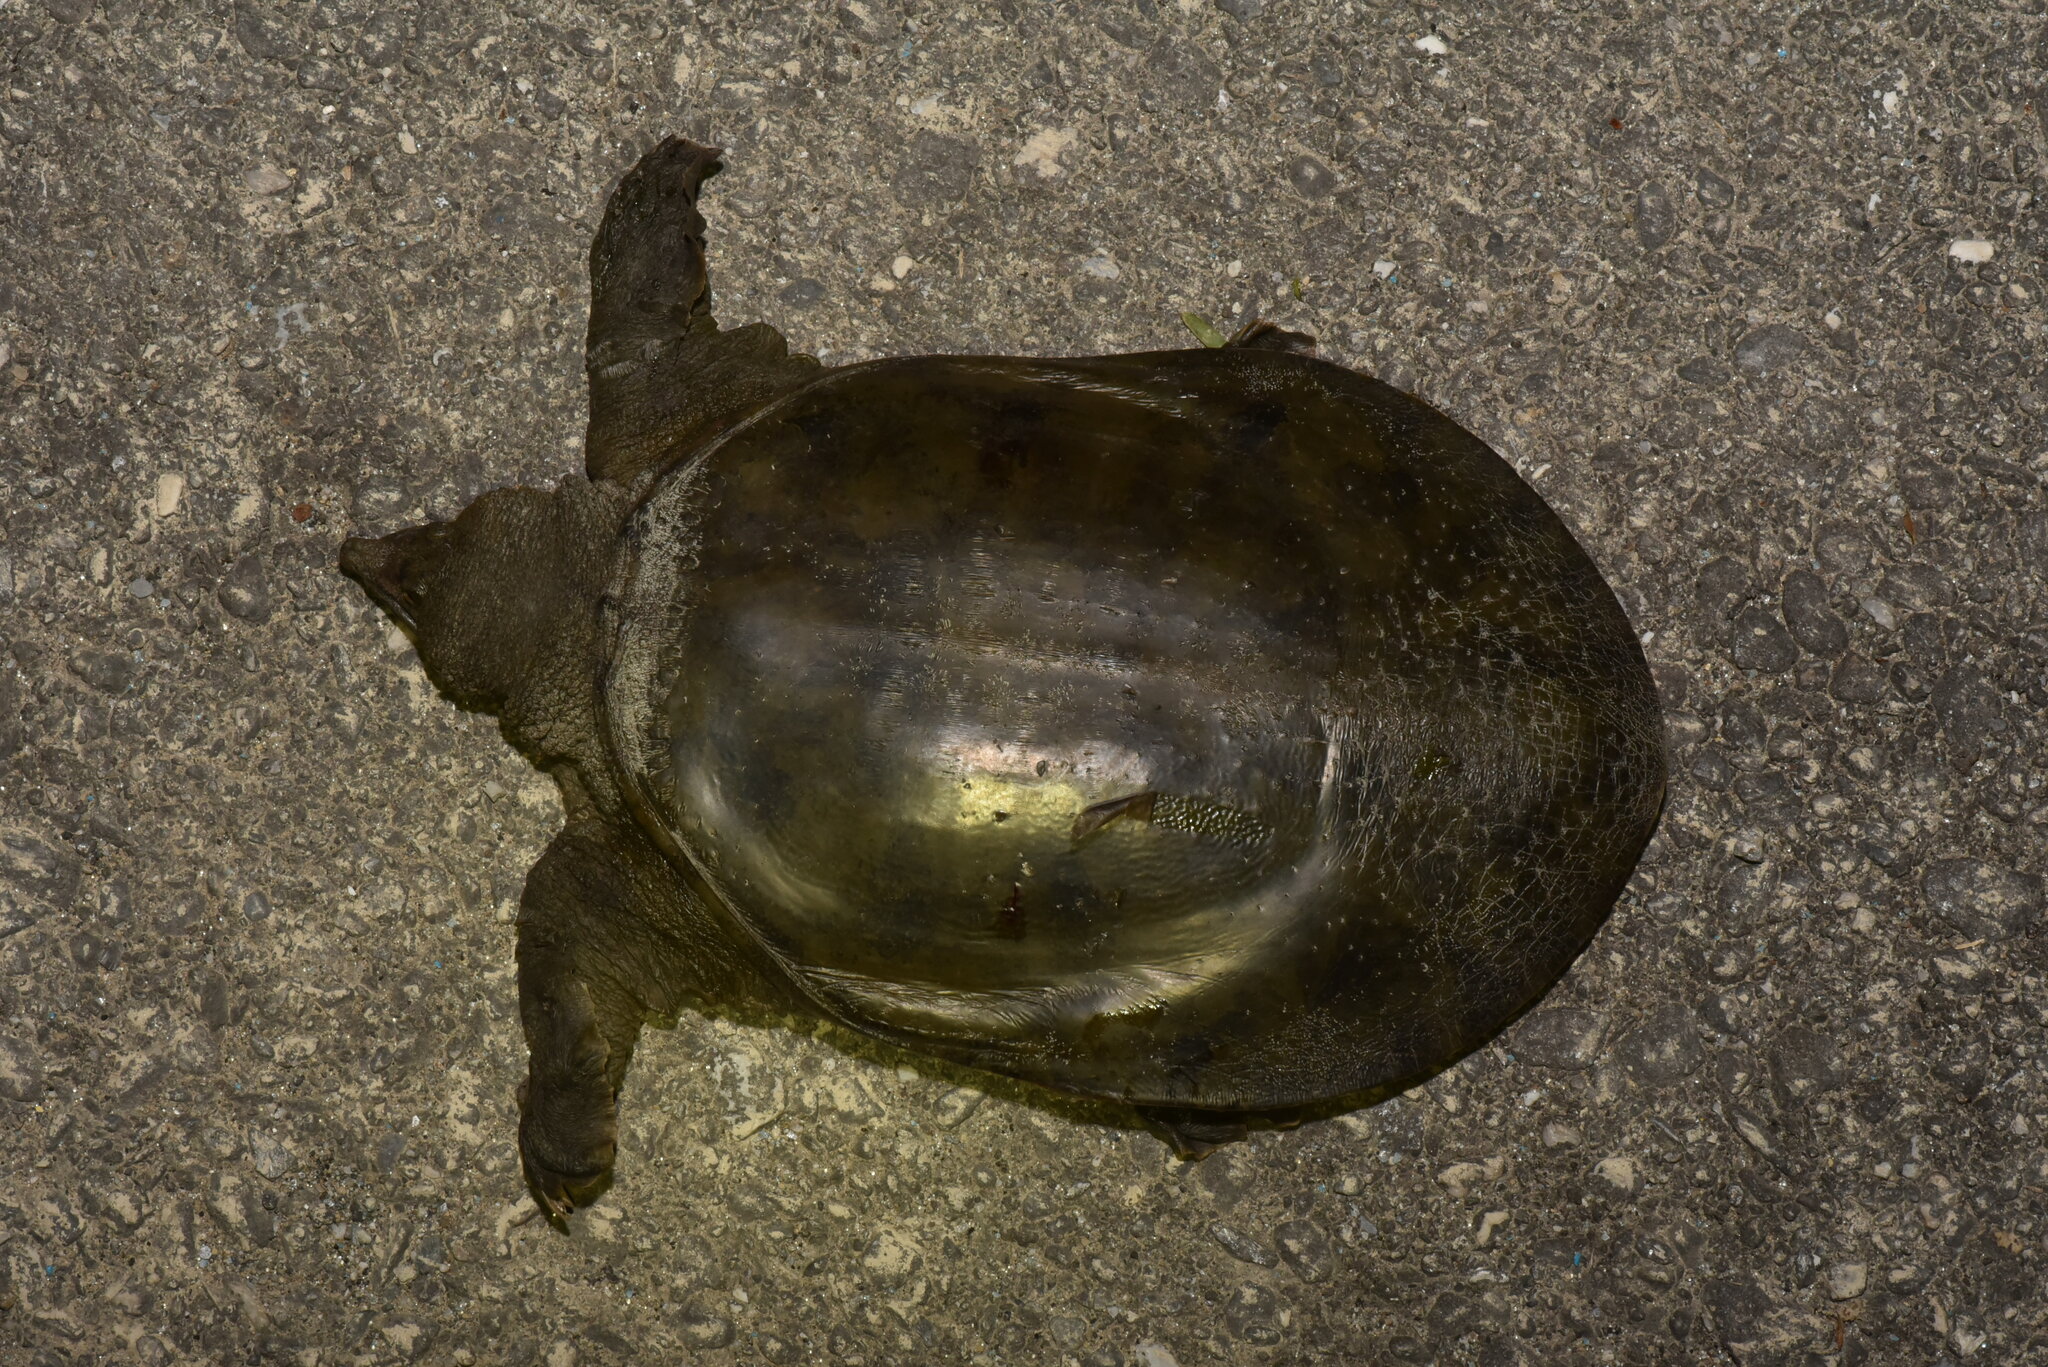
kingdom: Animalia
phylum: Chordata
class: Testudines
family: Trionychidae
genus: Pelodiscus
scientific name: Pelodiscus sinensis
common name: Chinese softshell turtle
